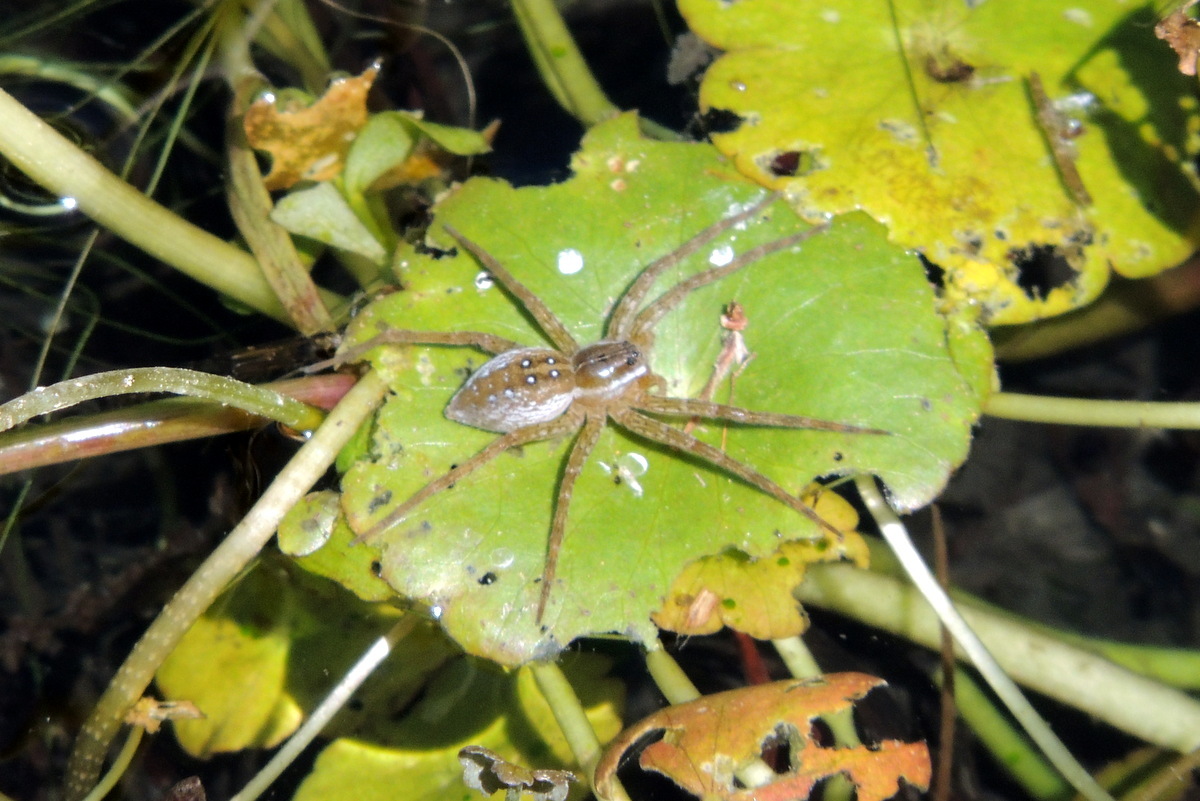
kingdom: Animalia
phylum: Arthropoda
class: Arachnida
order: Araneae
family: Pisauridae
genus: Dolomedes
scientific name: Dolomedes triton
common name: Six-spotted fishing spider
